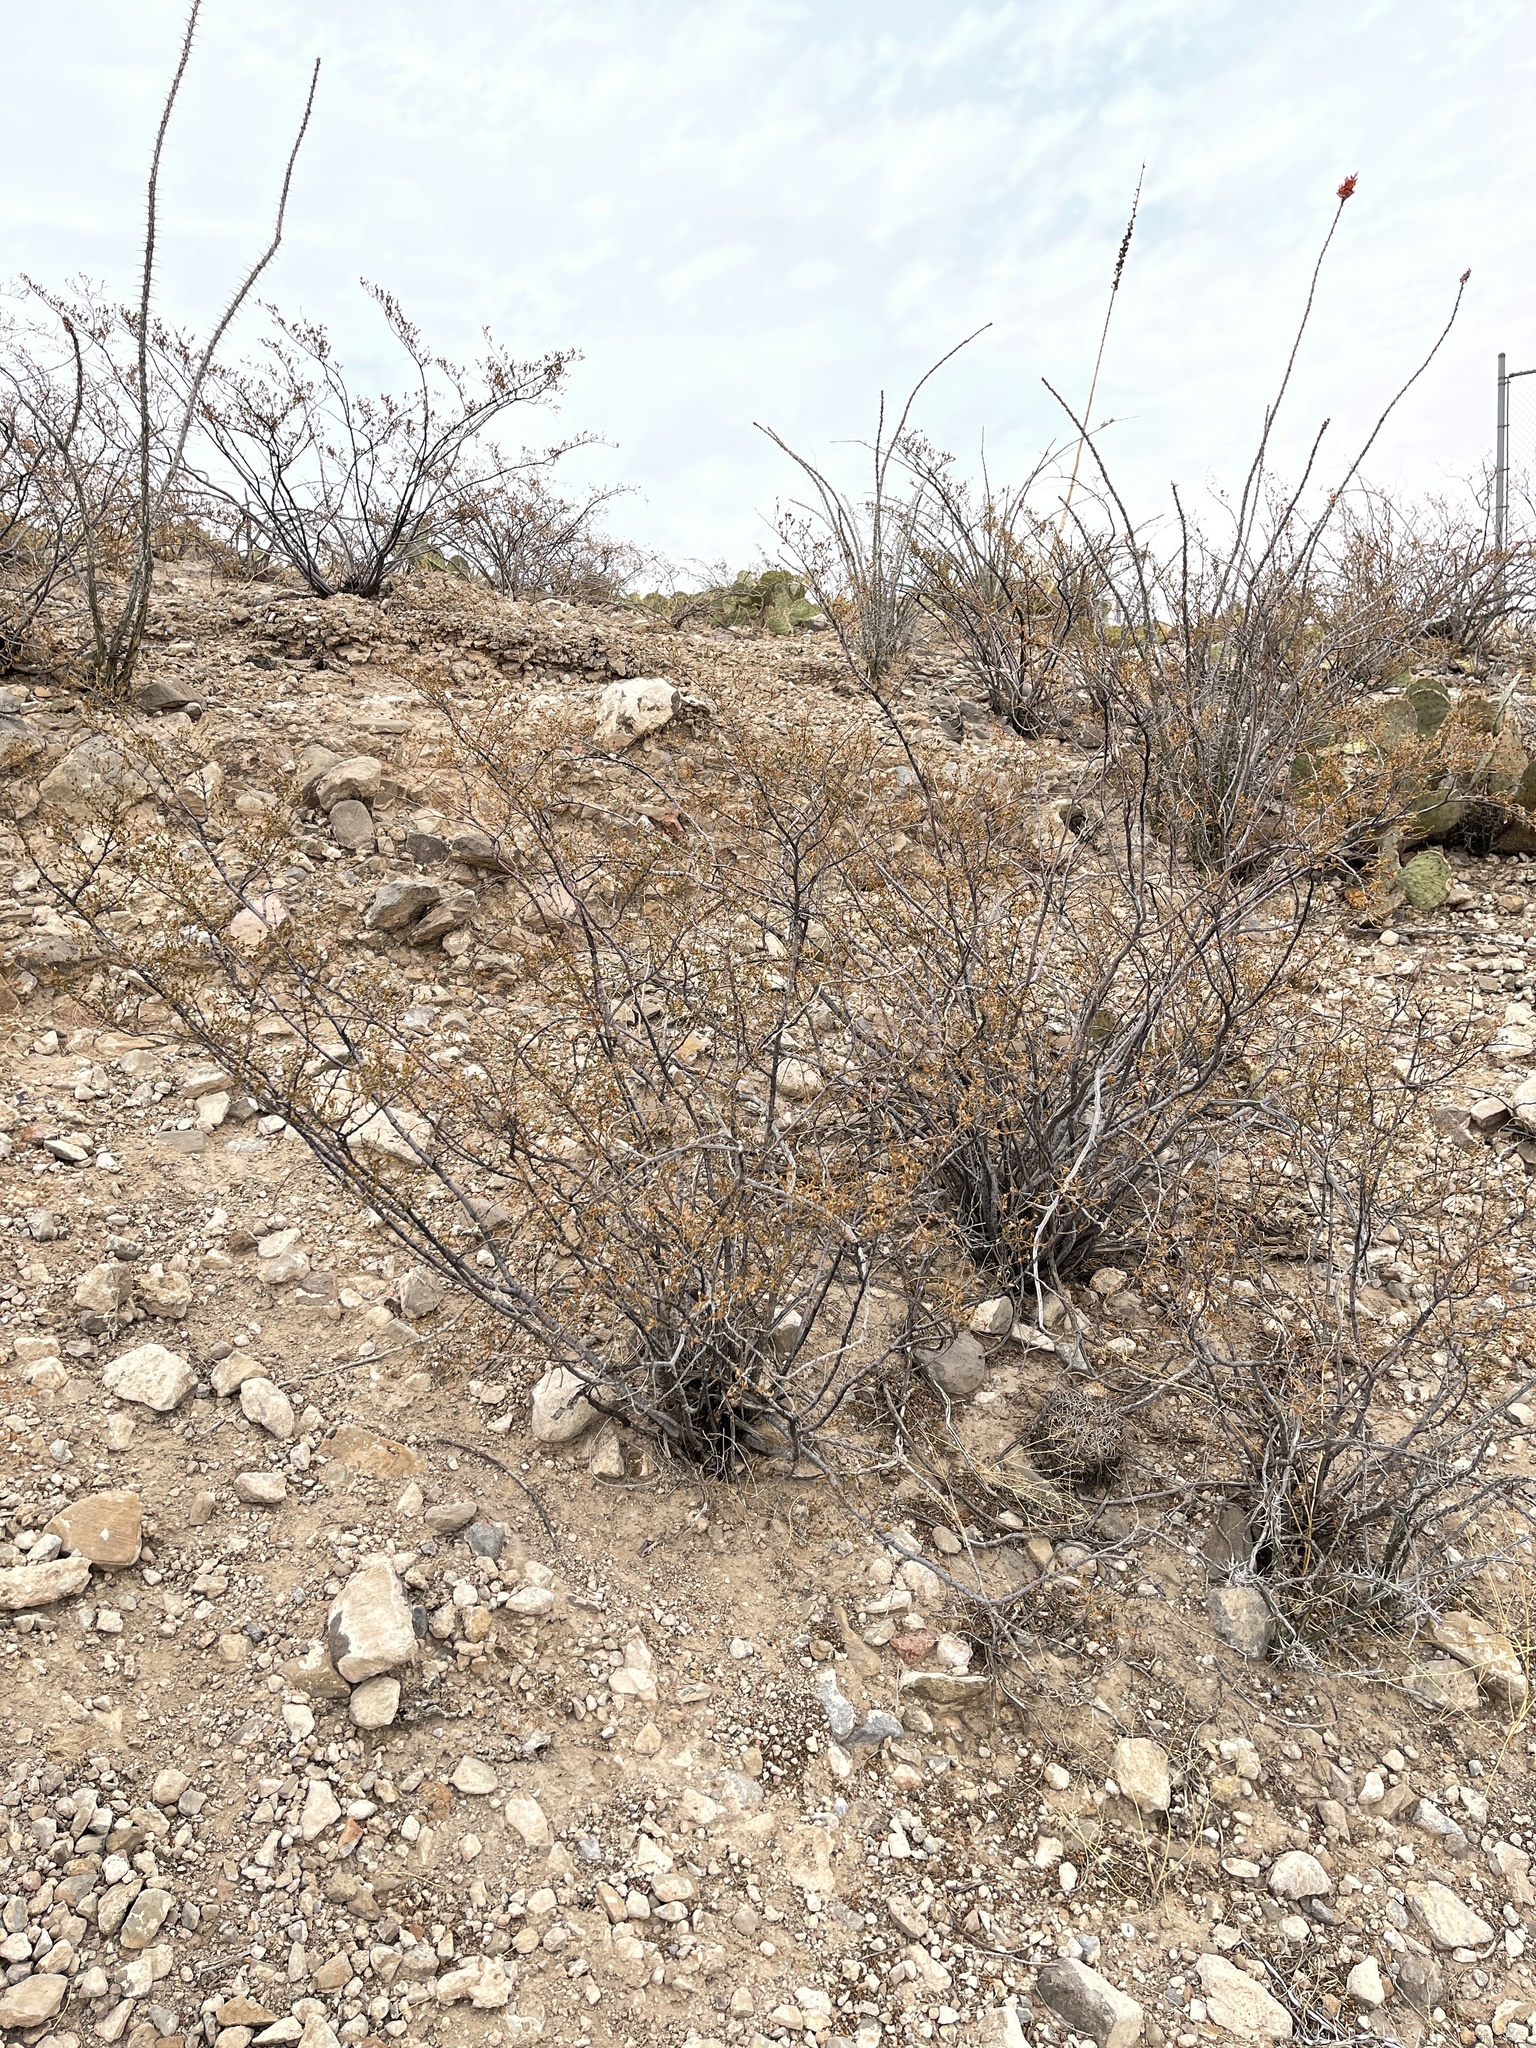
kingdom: Plantae
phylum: Tracheophyta
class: Magnoliopsida
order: Zygophyllales
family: Zygophyllaceae
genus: Larrea
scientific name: Larrea tridentata
